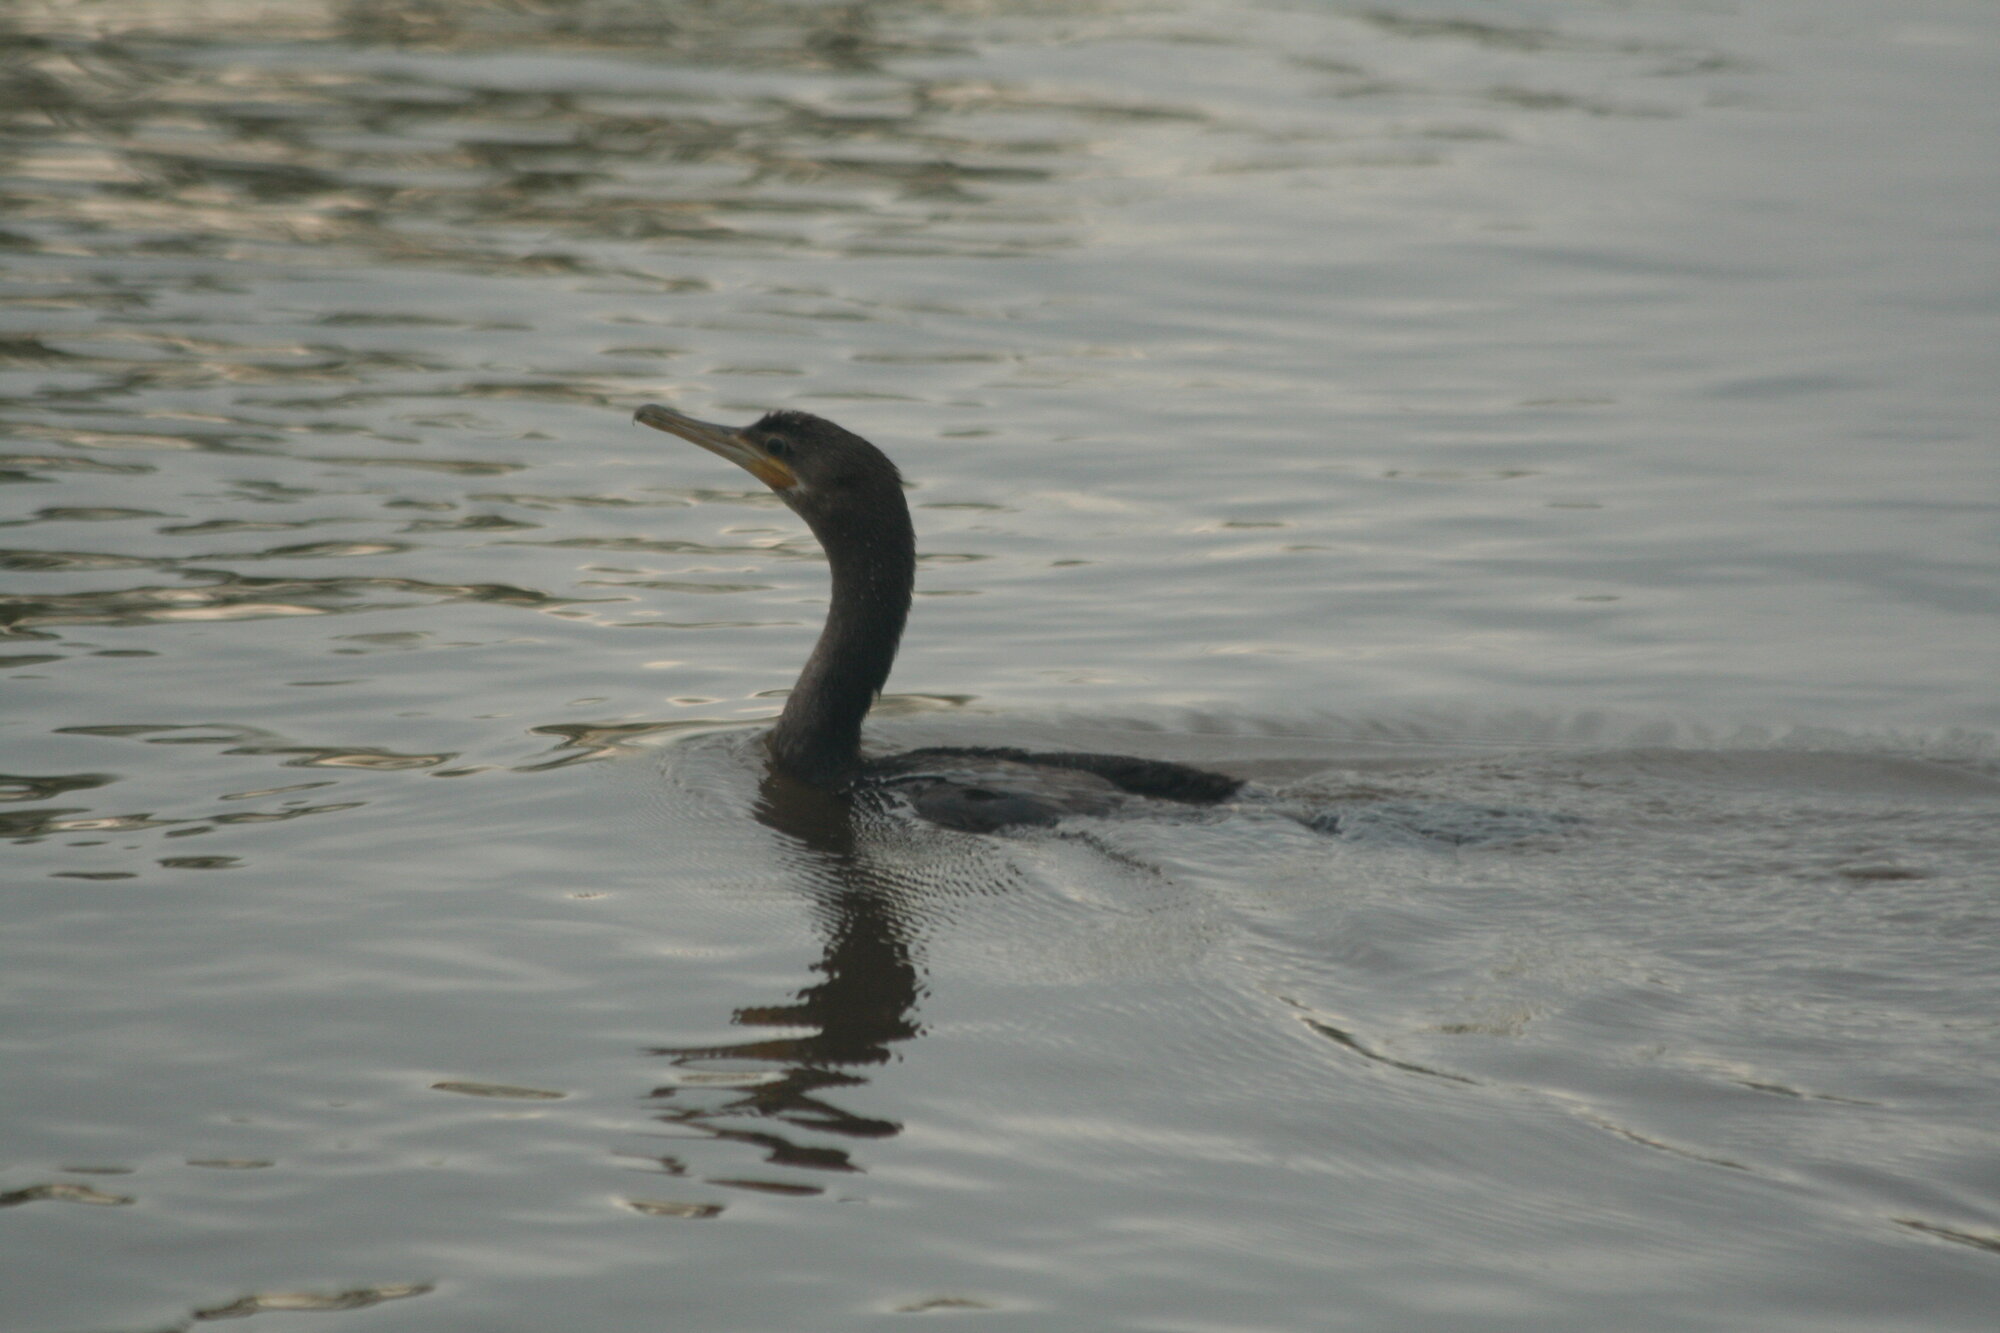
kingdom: Animalia
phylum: Chordata
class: Aves
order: Suliformes
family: Phalacrocoracidae
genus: Phalacrocorax
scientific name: Phalacrocorax brasilianus
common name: Neotropic cormorant
